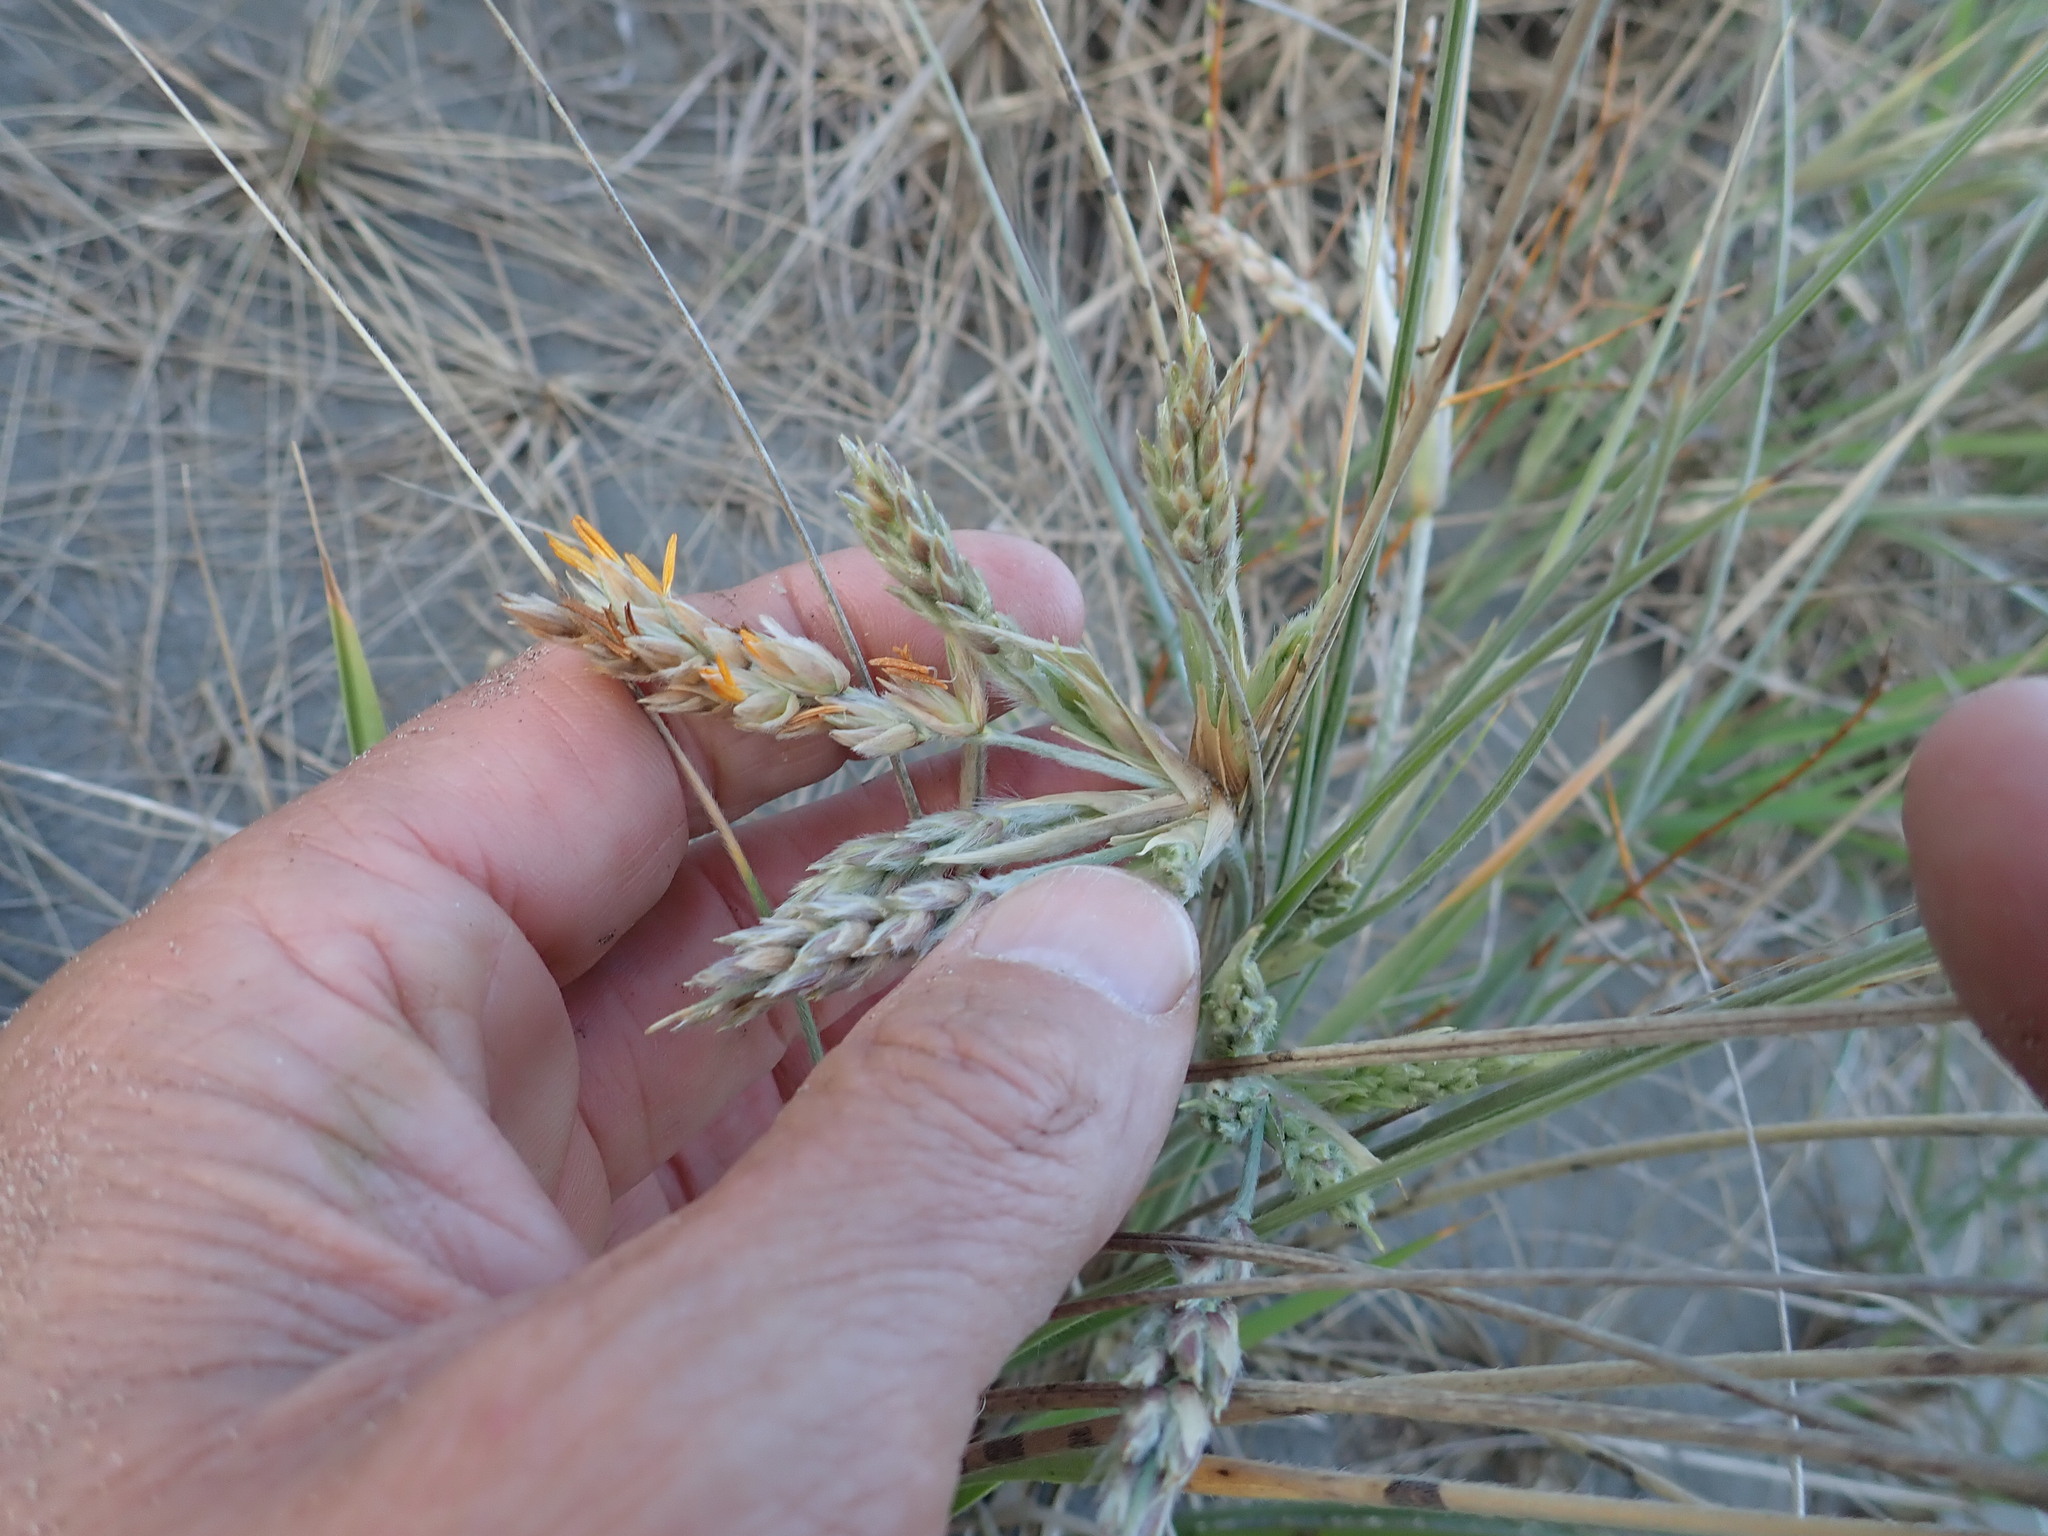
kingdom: Plantae
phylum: Tracheophyta
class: Liliopsida
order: Poales
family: Poaceae
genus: Spinifex
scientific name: Spinifex sericeus
